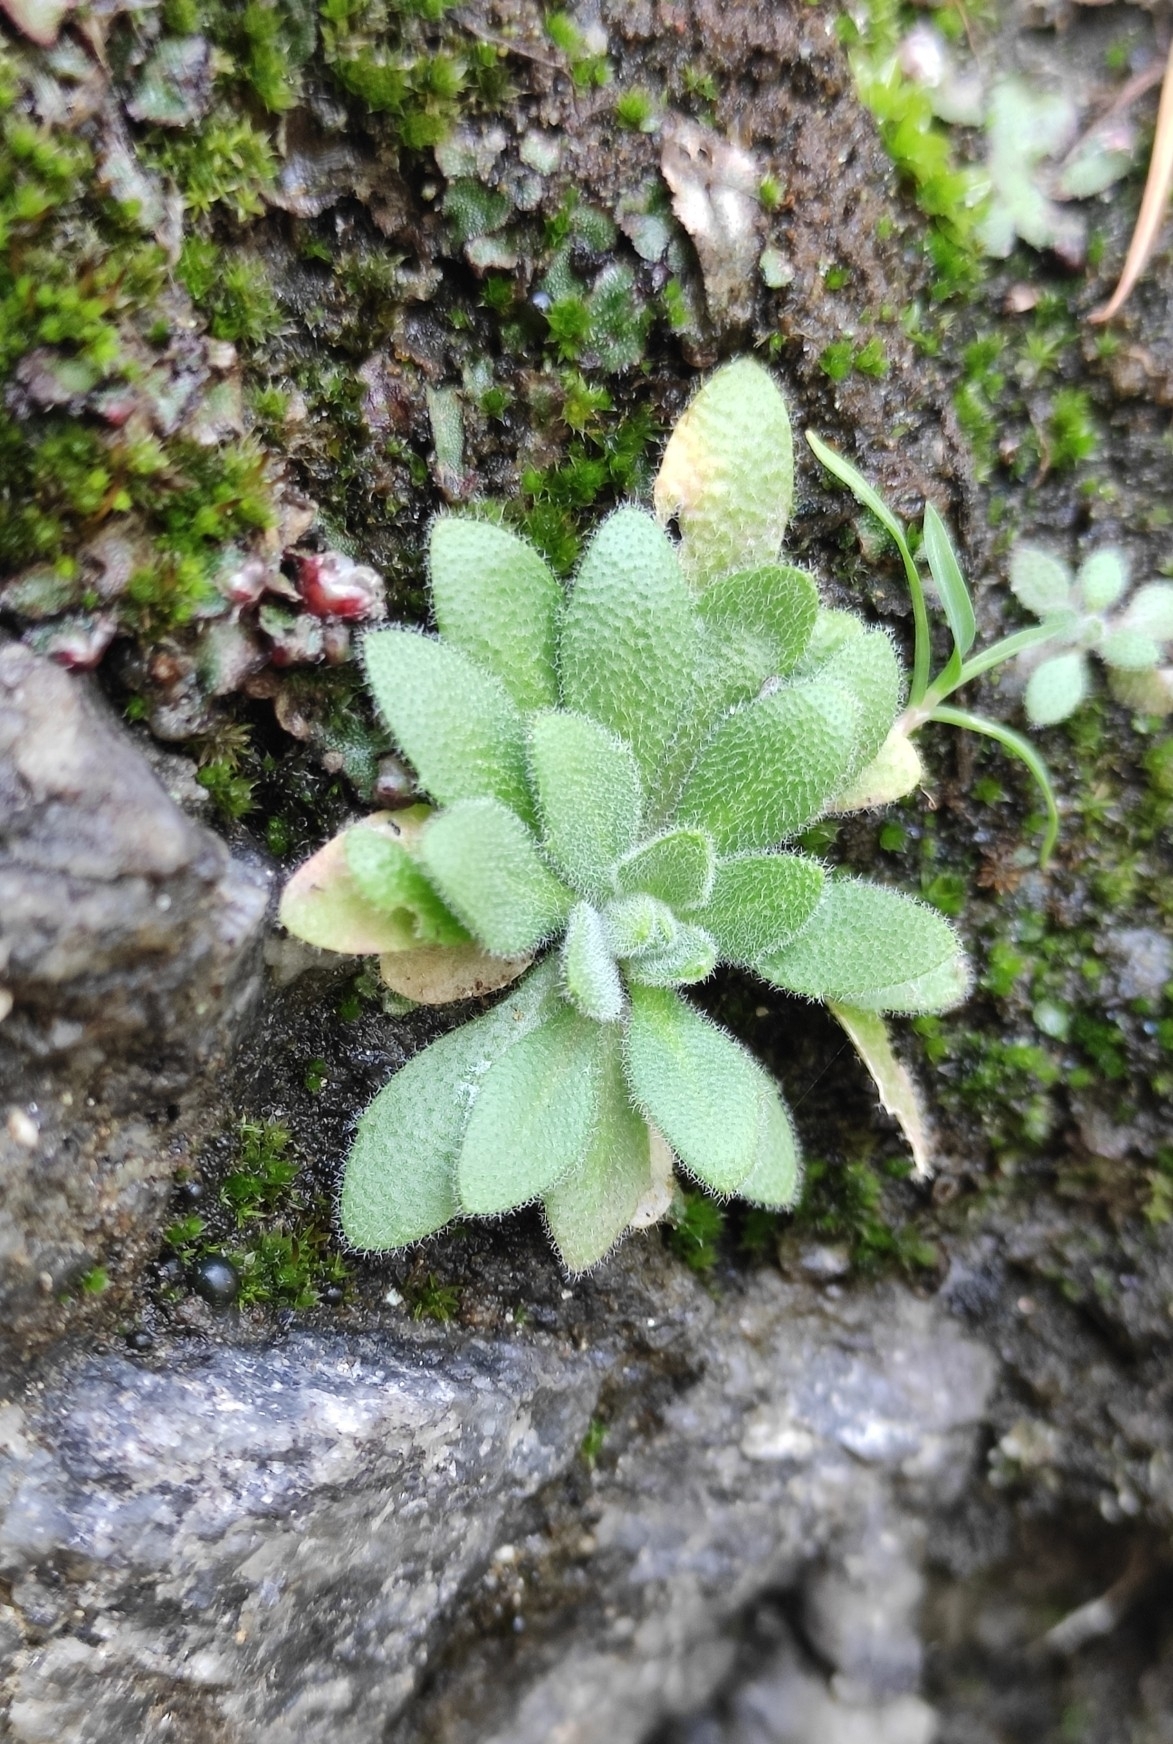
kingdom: Plantae
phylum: Tracheophyta
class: Magnoliopsida
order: Brassicales
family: Brassicaceae
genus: Draba
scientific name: Draba nemorosa
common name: Wood whitlow-grass
